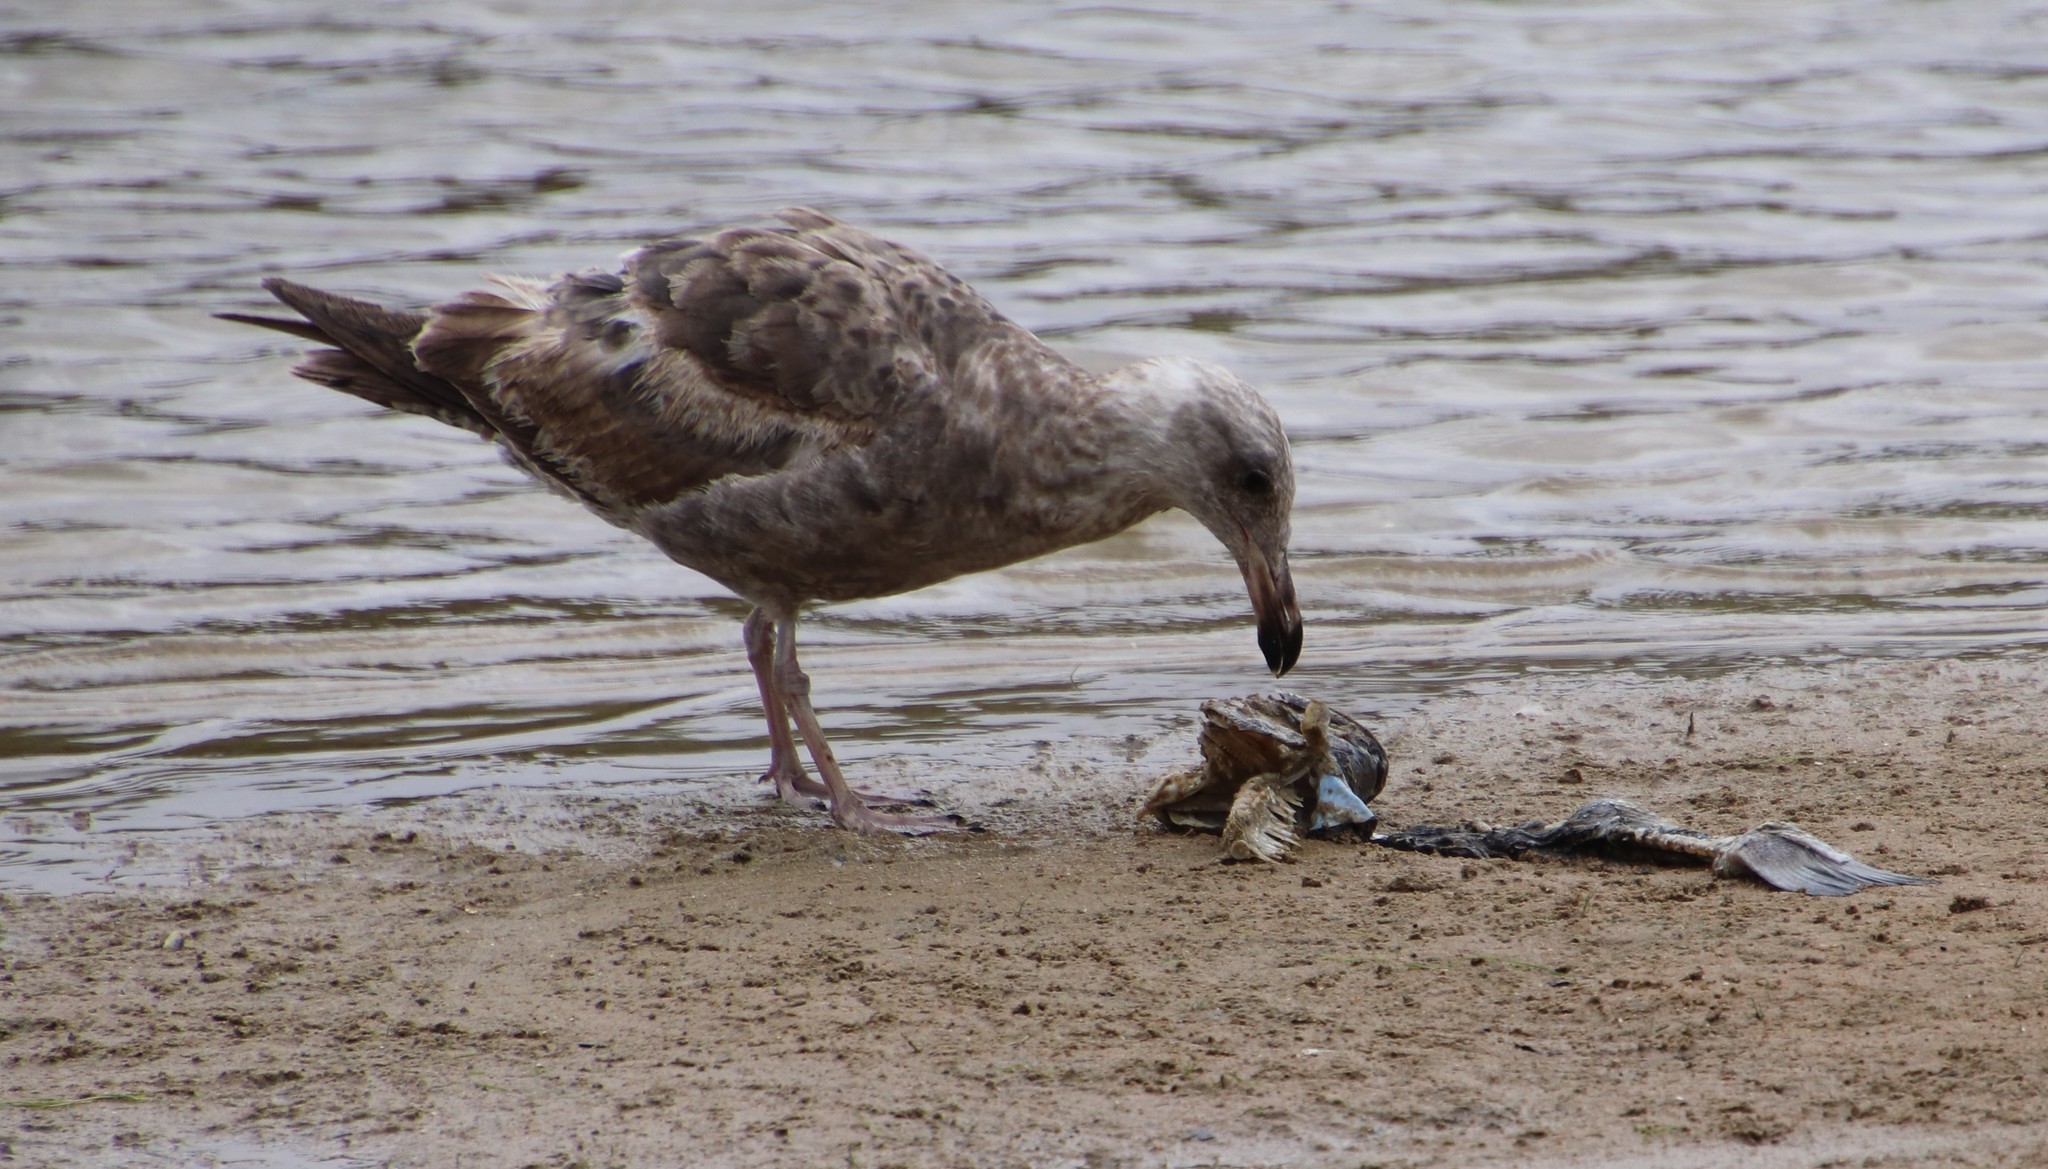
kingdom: Animalia
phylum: Chordata
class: Aves
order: Charadriiformes
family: Laridae
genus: Larus
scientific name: Larus occidentalis
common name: Western gull
